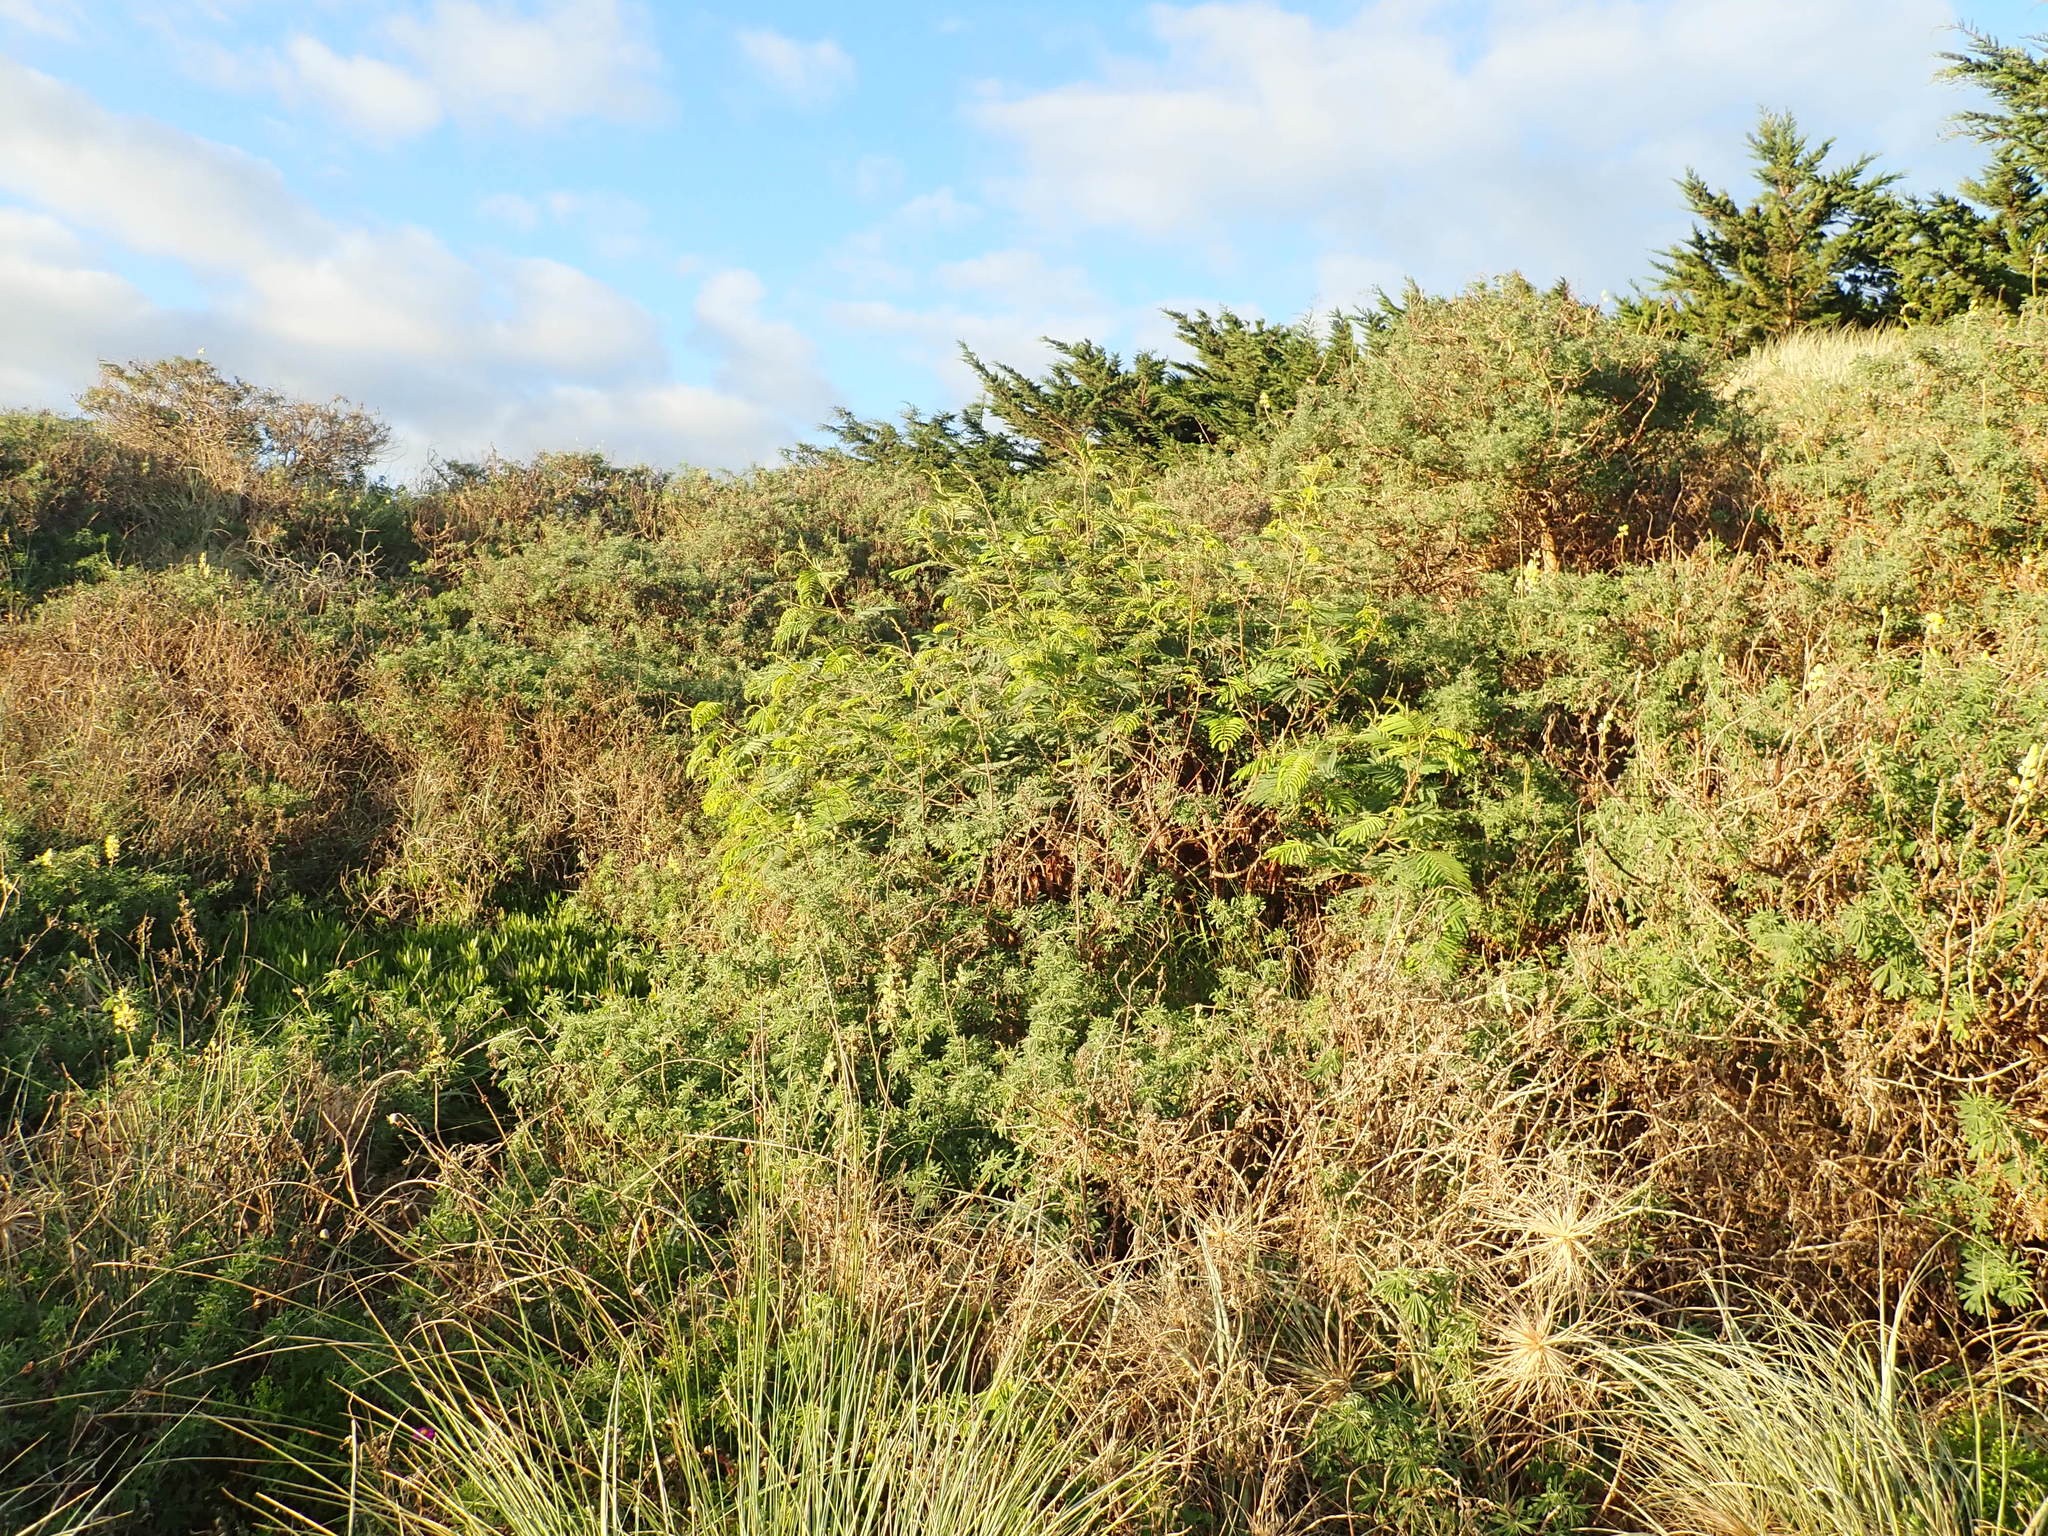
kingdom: Plantae
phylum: Tracheophyta
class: Magnoliopsida
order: Fabales
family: Fabaceae
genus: Paraserianthes
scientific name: Paraserianthes lophantha
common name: Plume albizia
